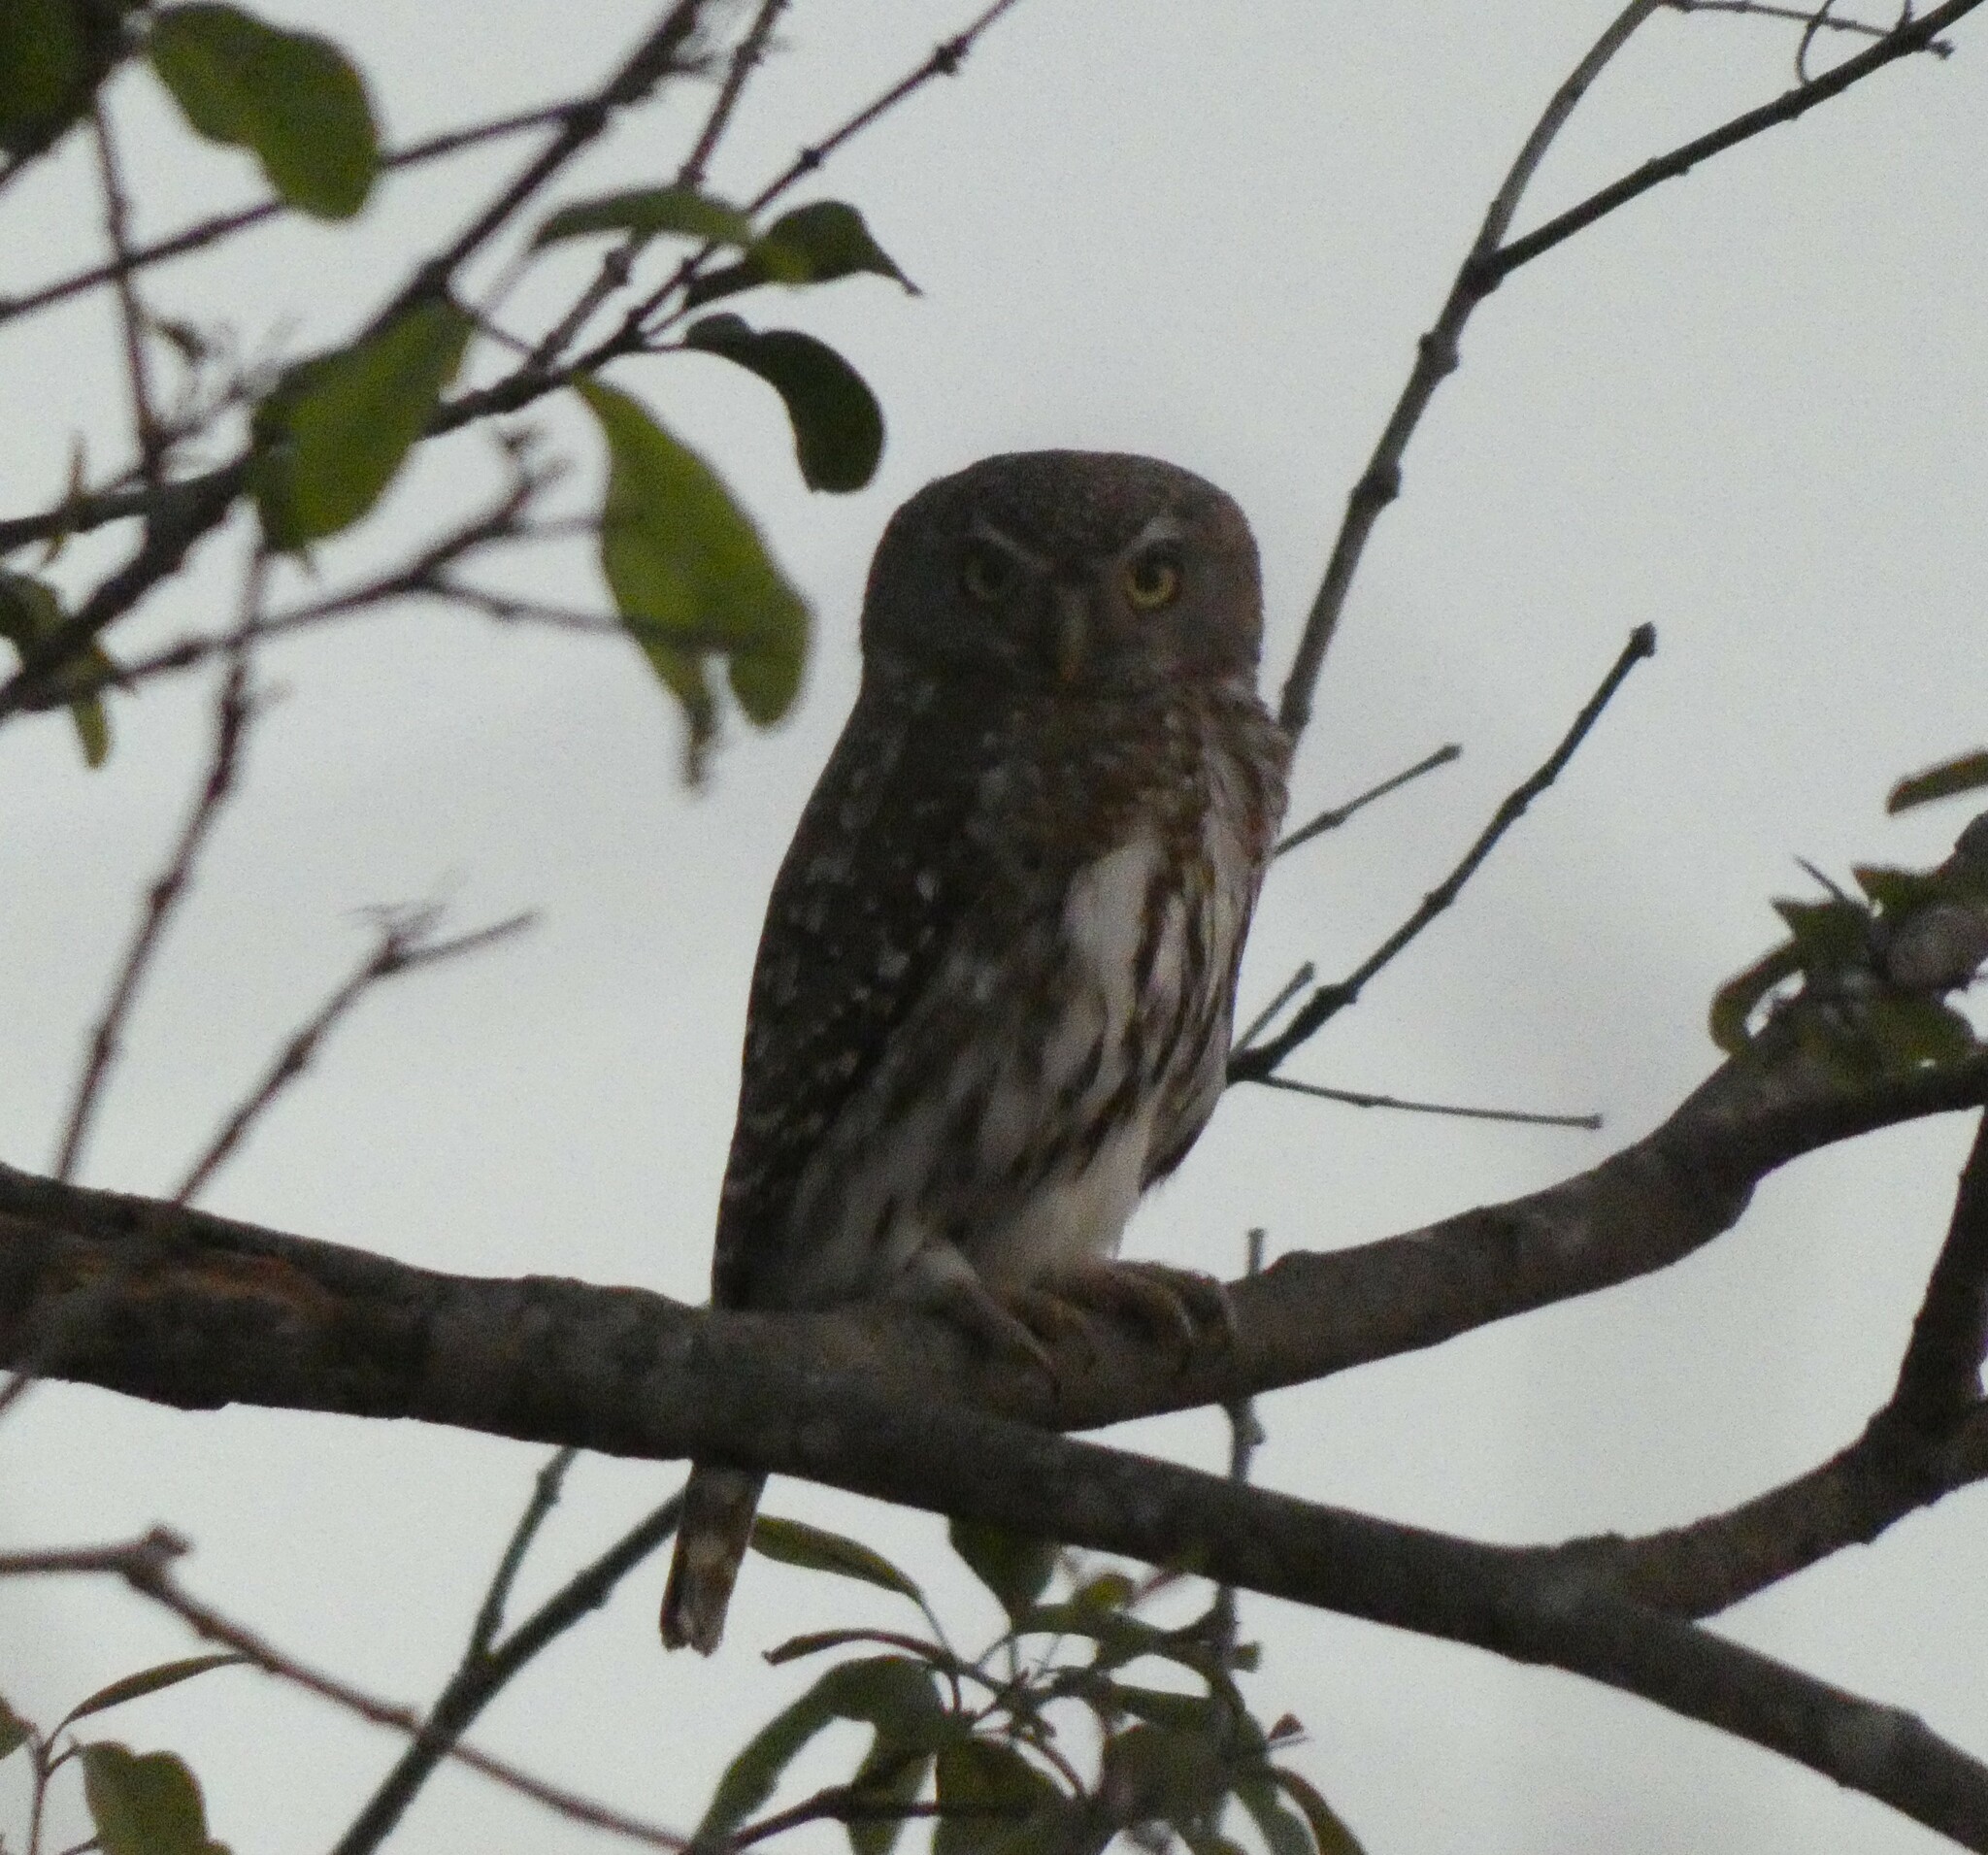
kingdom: Animalia
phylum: Chordata
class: Aves
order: Strigiformes
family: Strigidae
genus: Glaucidium
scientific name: Glaucidium perlatum
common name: Pearl-spotted owlet
